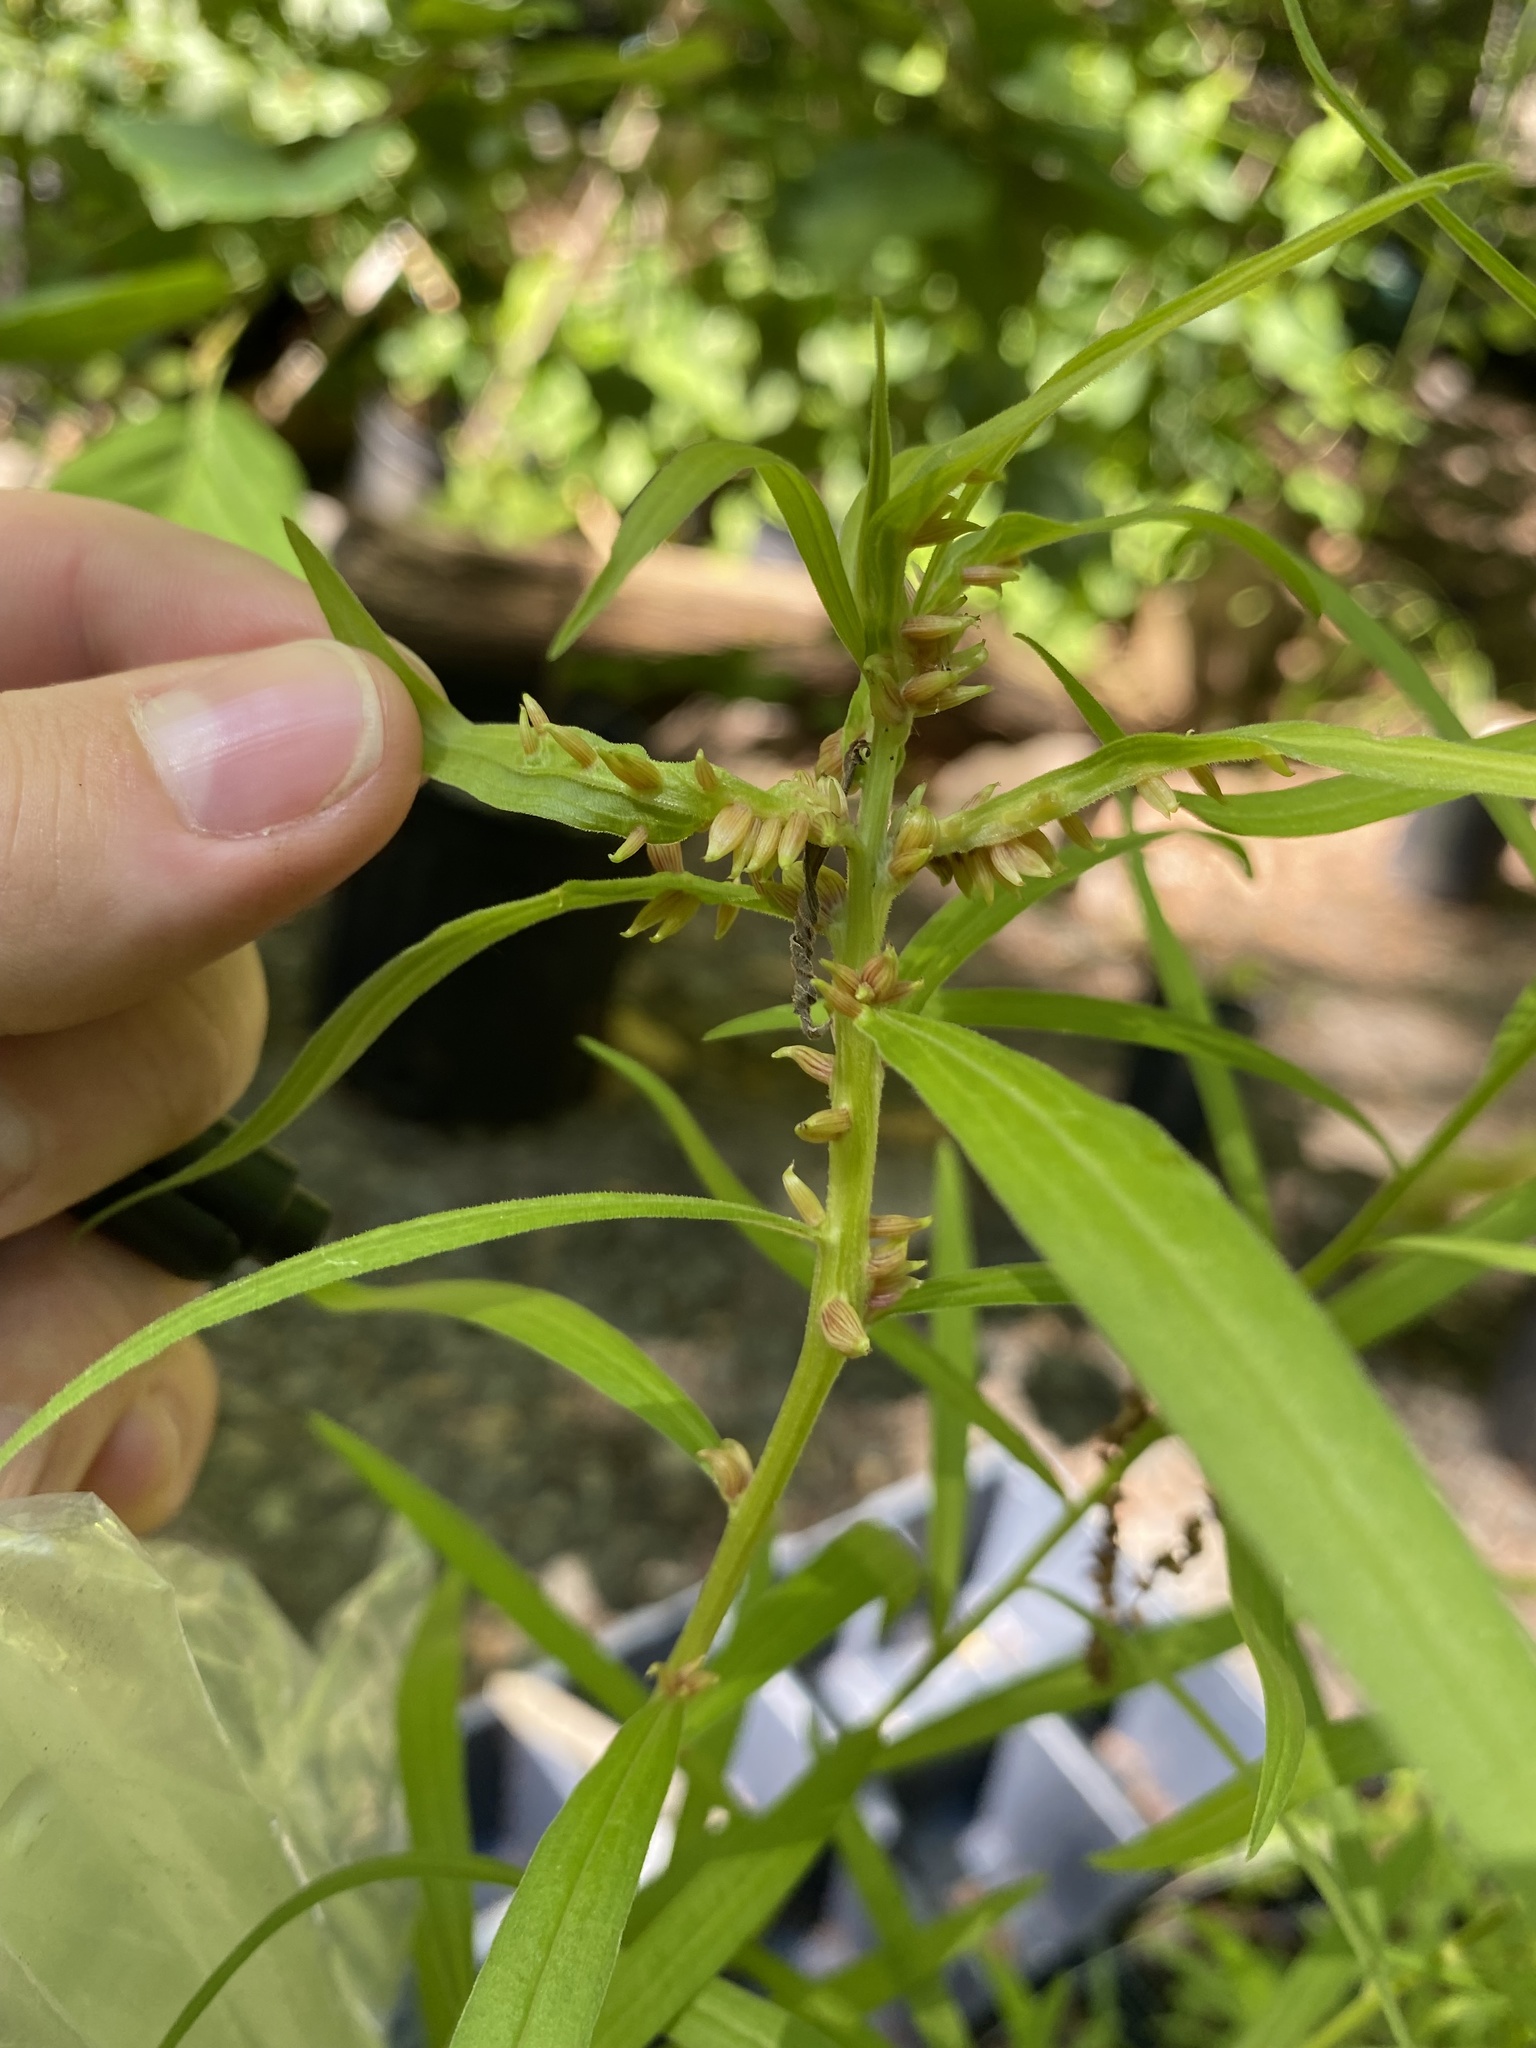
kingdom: Animalia
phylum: Arthropoda
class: Insecta
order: Diptera
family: Cecidomyiidae
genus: Rhopalomyia
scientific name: Rhopalomyia fusiformae
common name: Goldentop sessile gall midge
